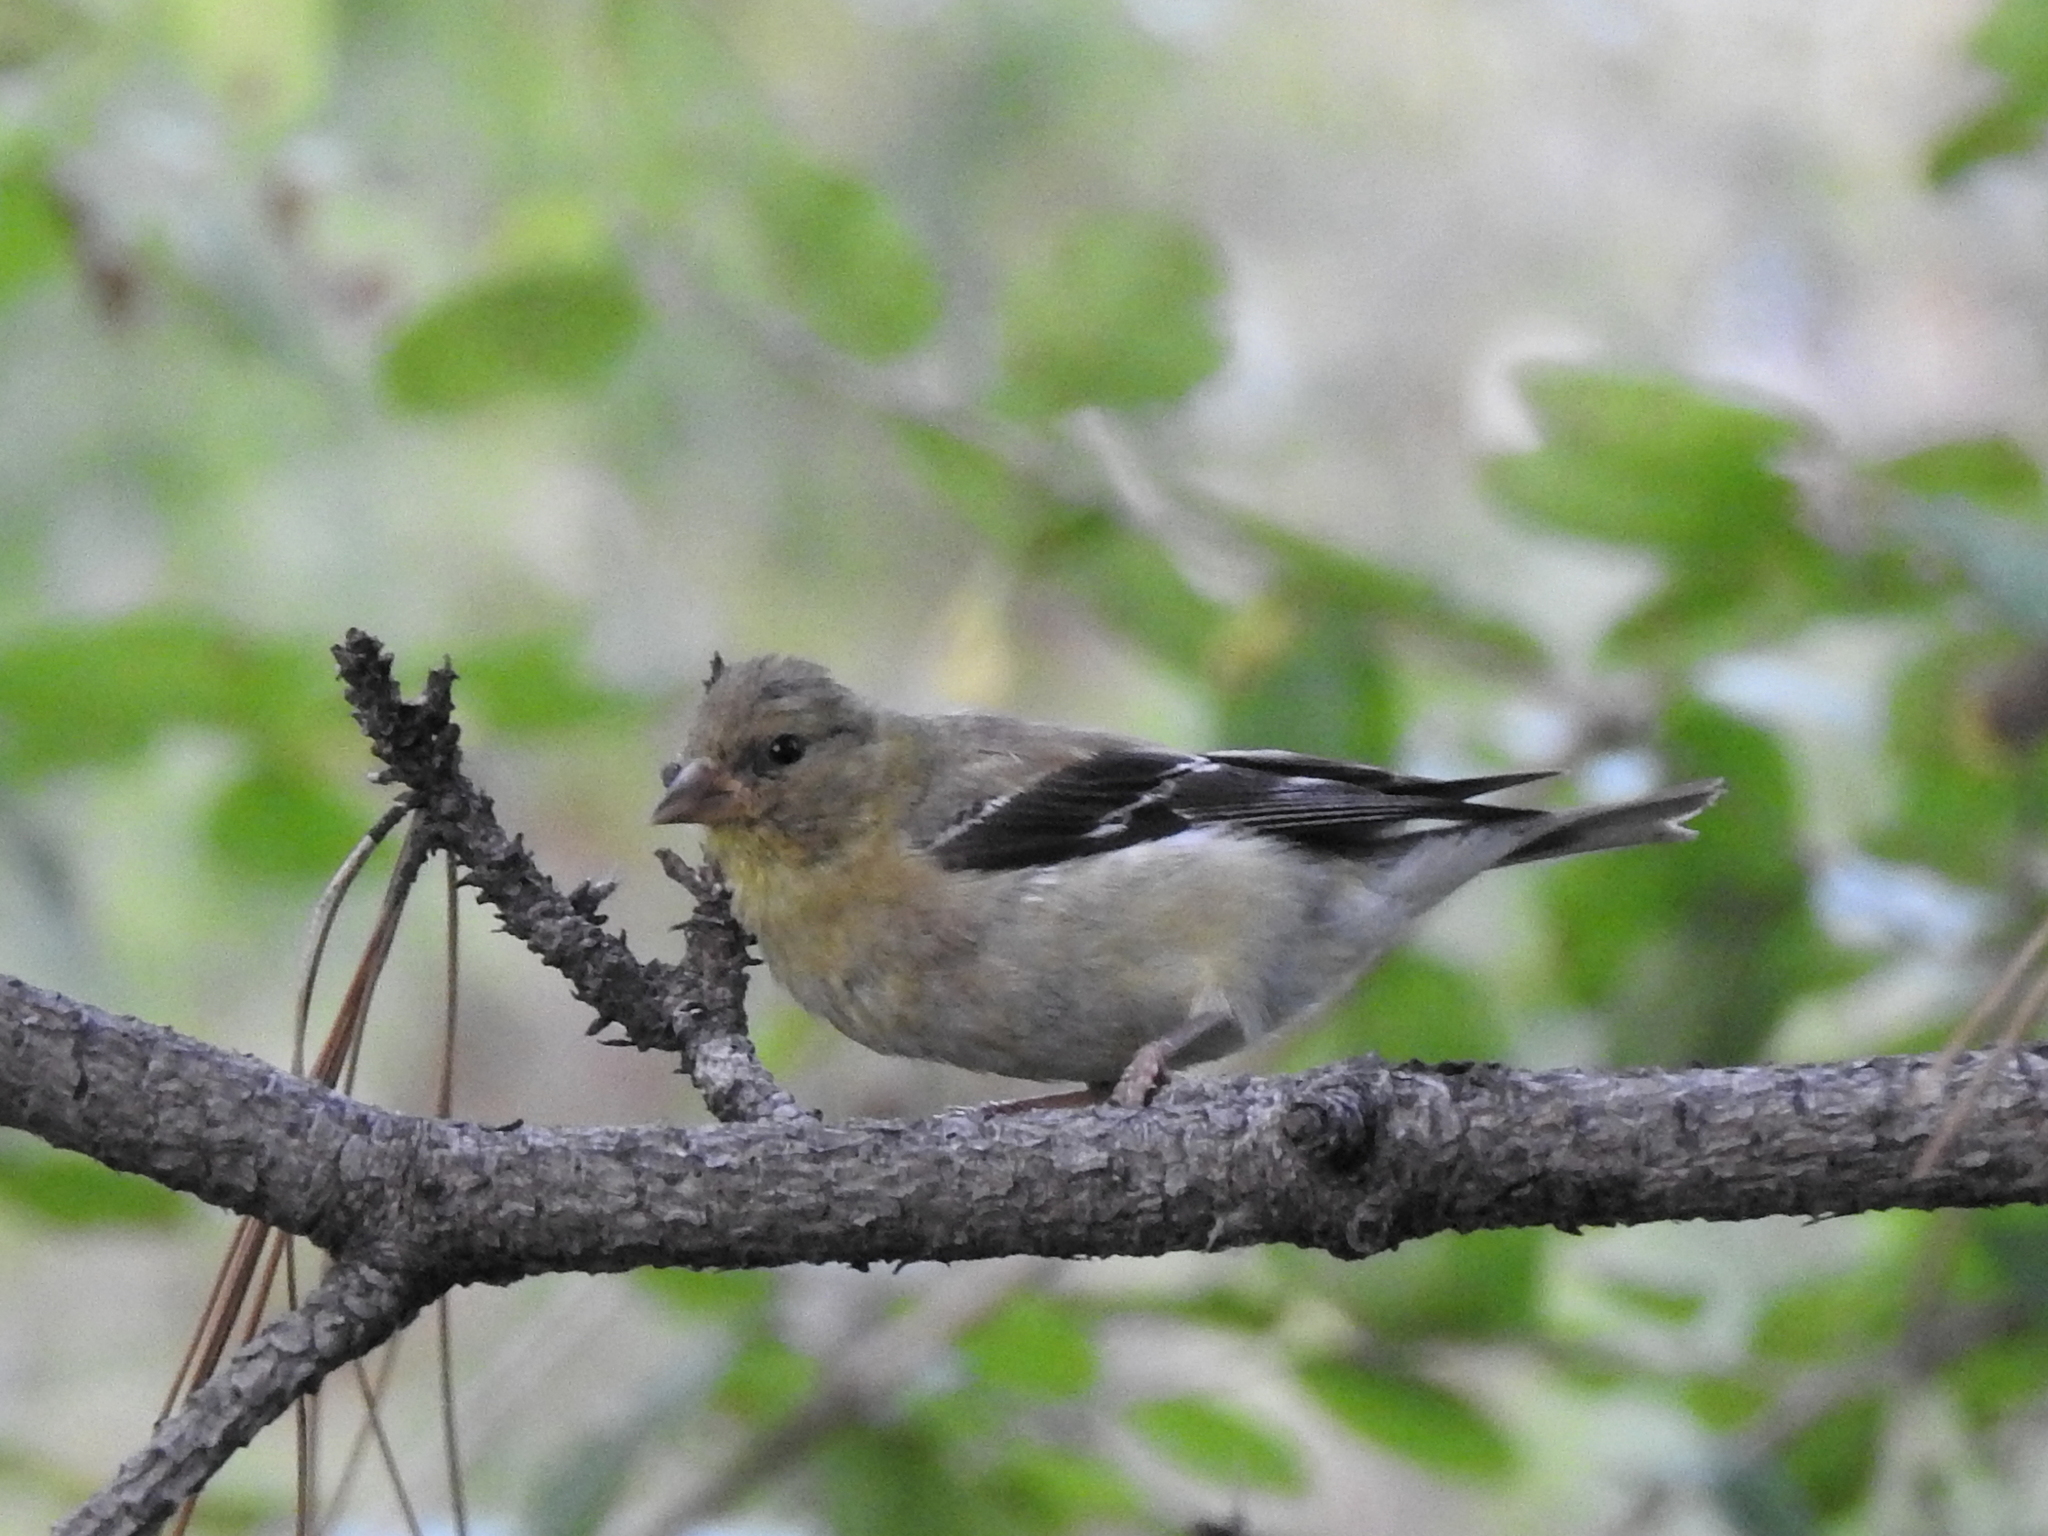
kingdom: Animalia
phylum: Chordata
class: Aves
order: Passeriformes
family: Fringillidae
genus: Spinus
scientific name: Spinus tristis
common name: American goldfinch
